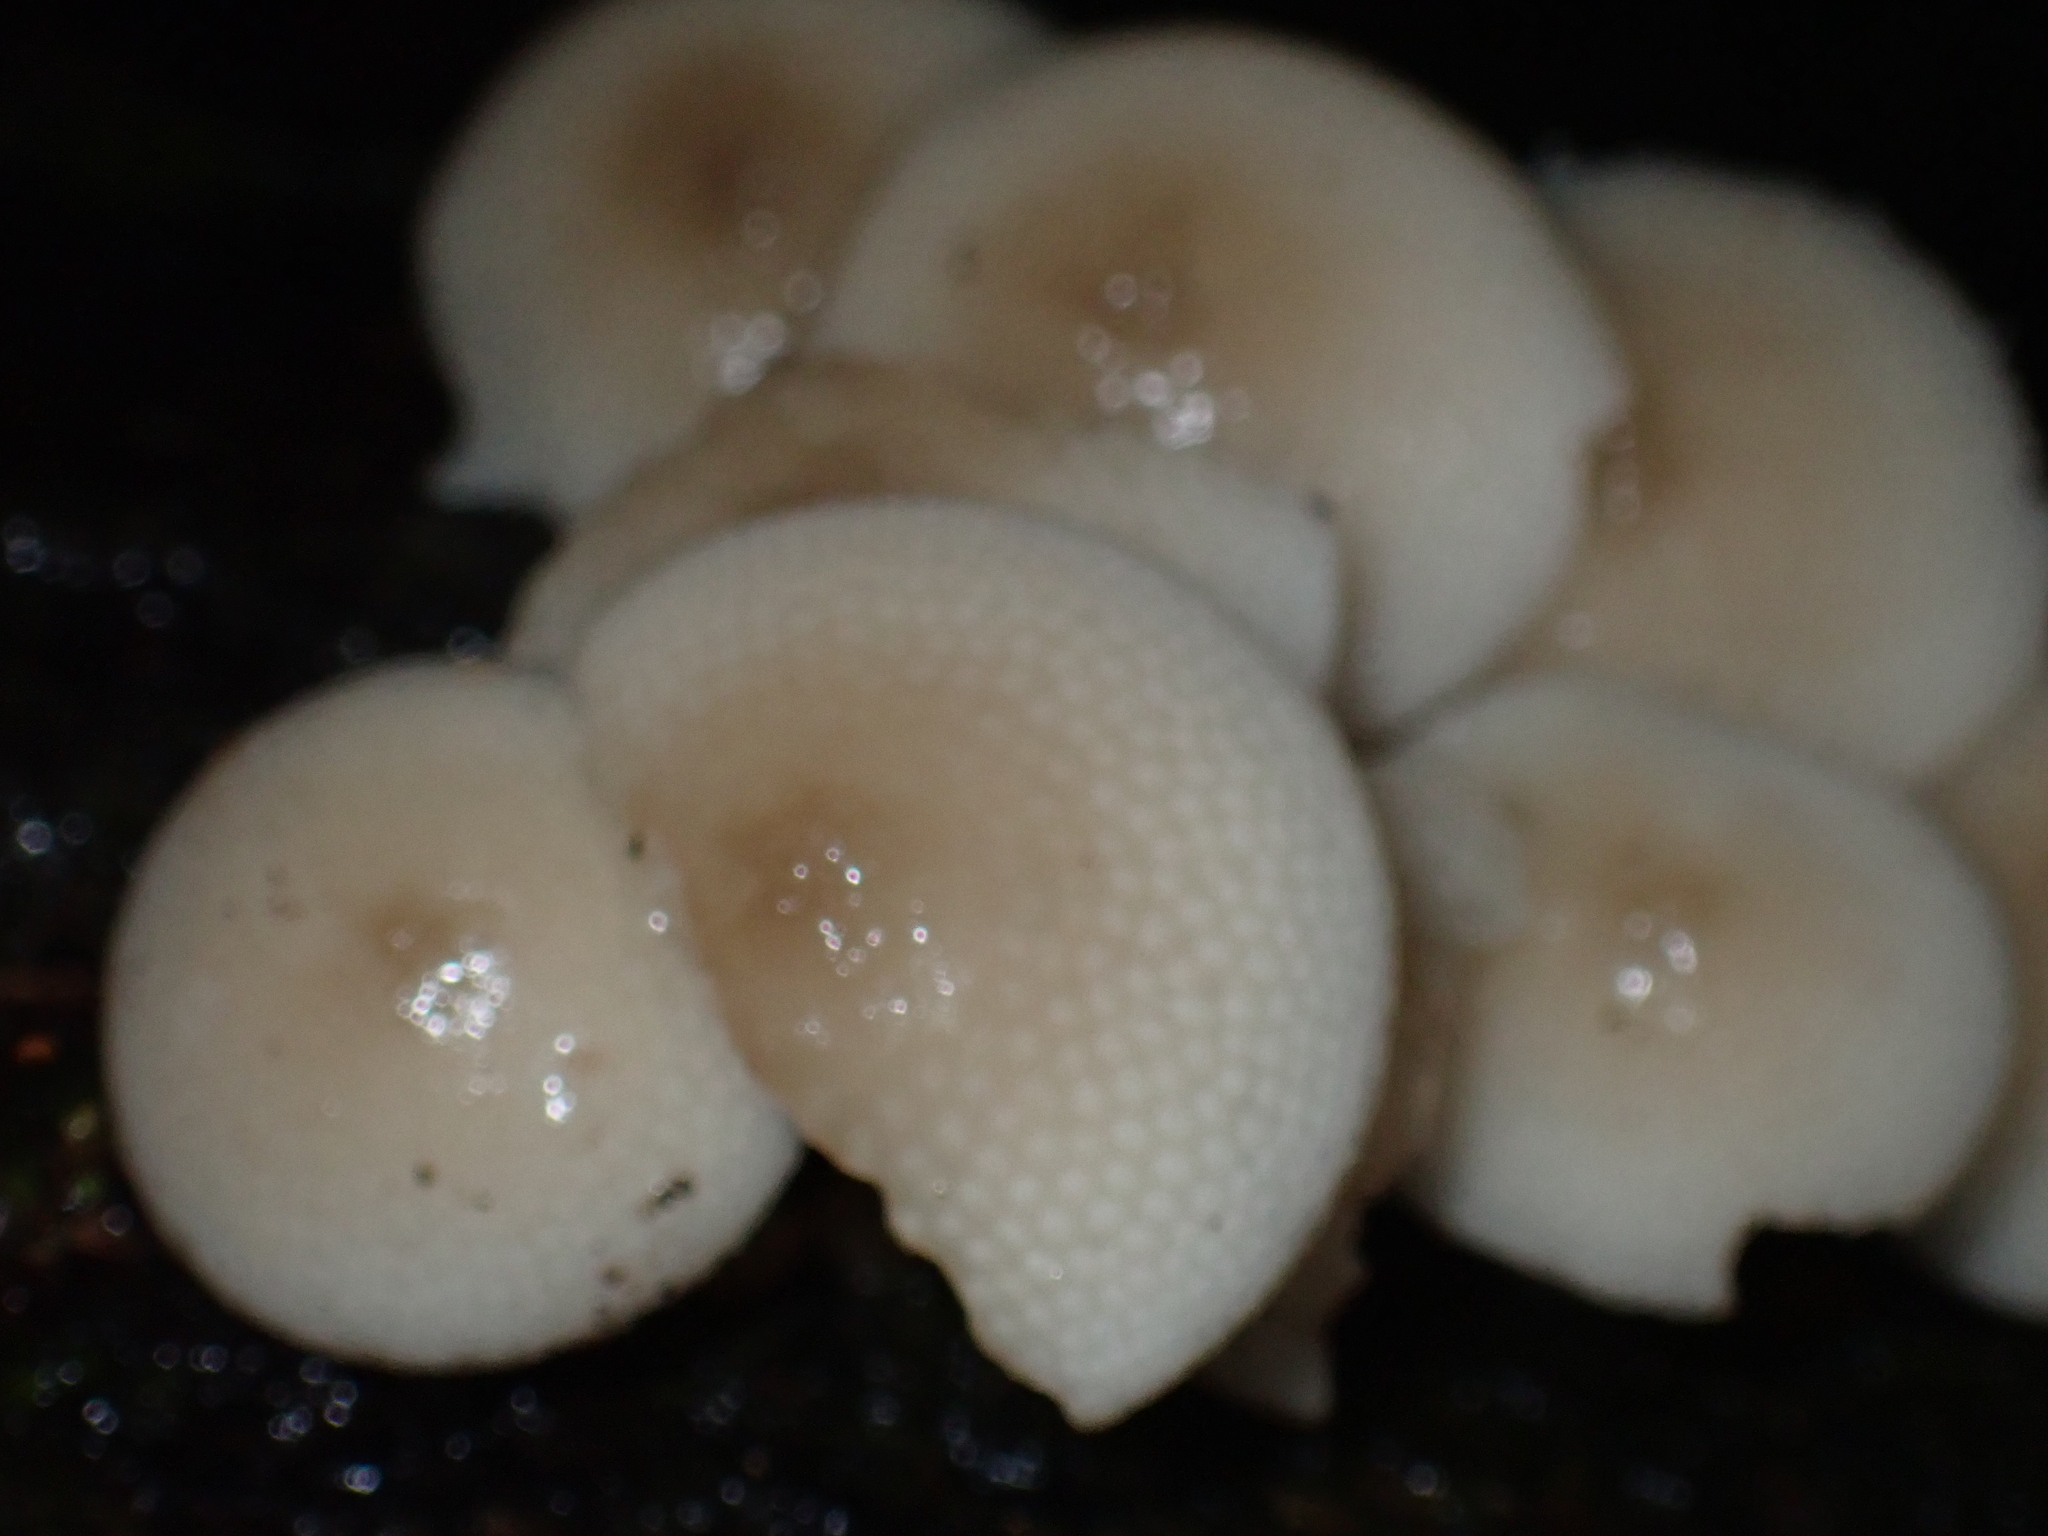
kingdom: Fungi
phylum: Basidiomycota
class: Agaricomycetes
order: Agaricales
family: Mycenaceae
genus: Filoboletus
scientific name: Filoboletus manipularis
